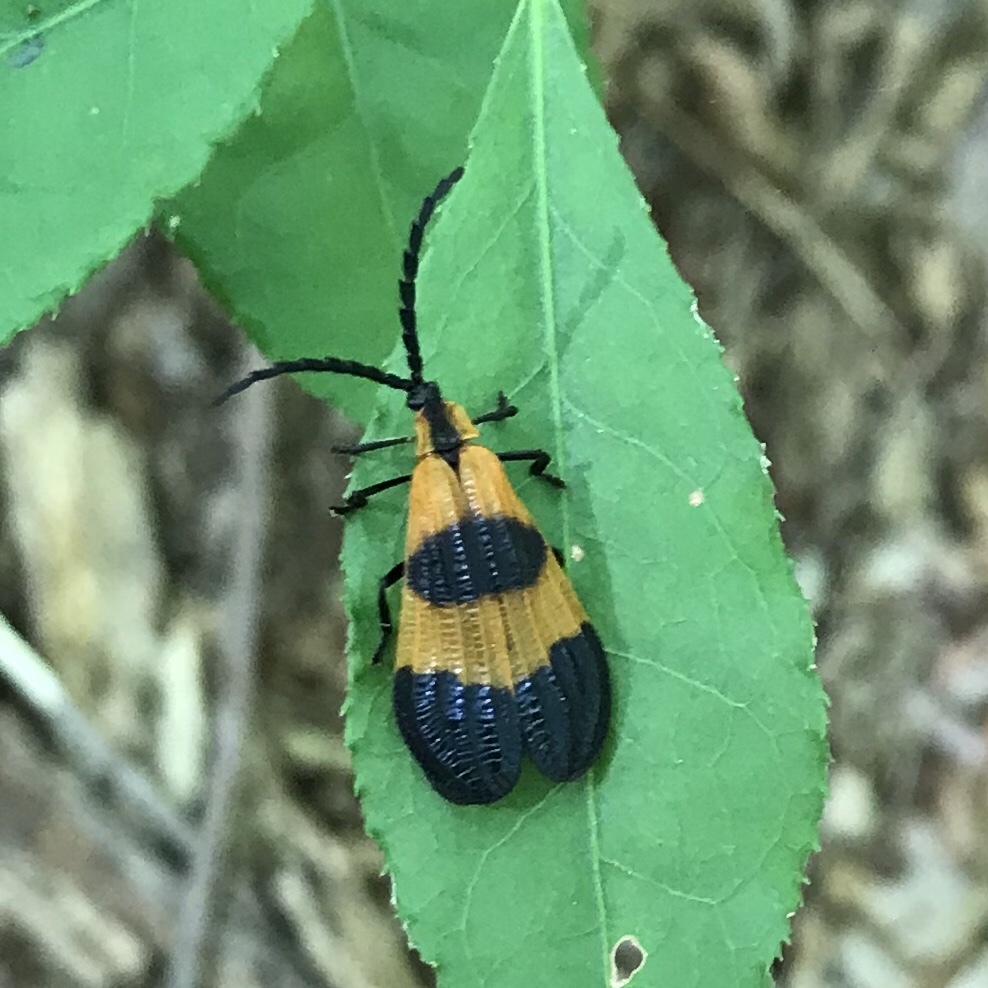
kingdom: Animalia
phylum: Arthropoda
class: Insecta
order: Coleoptera
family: Lycidae
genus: Calopteron
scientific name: Calopteron terminale
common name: End band net-winged beetle
